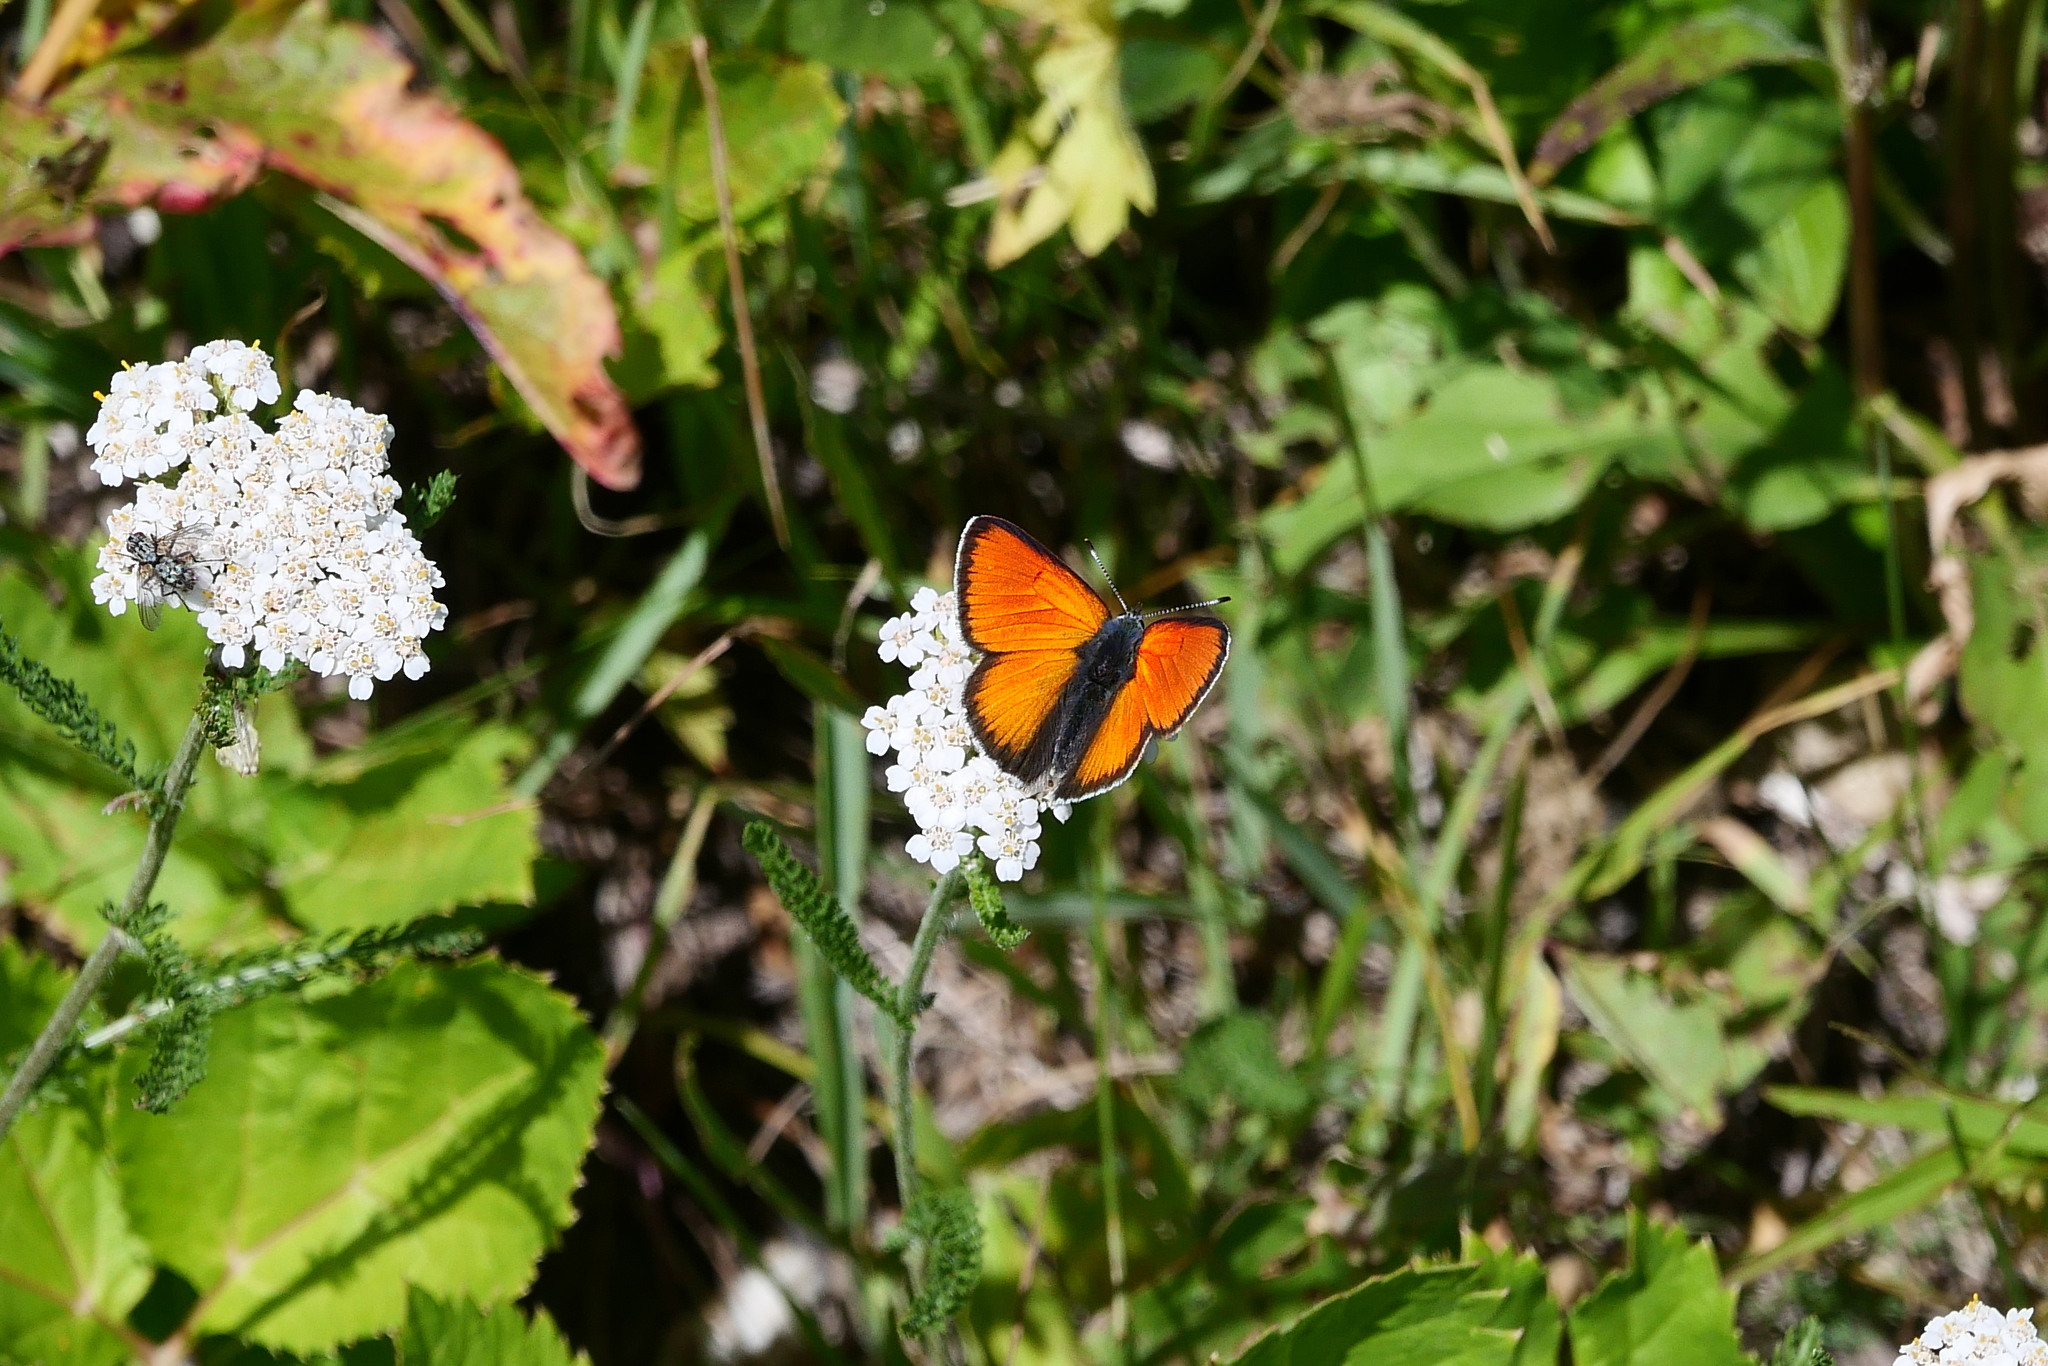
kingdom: Animalia
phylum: Arthropoda
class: Insecta
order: Lepidoptera
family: Lycaenidae
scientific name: Lycaenidae
